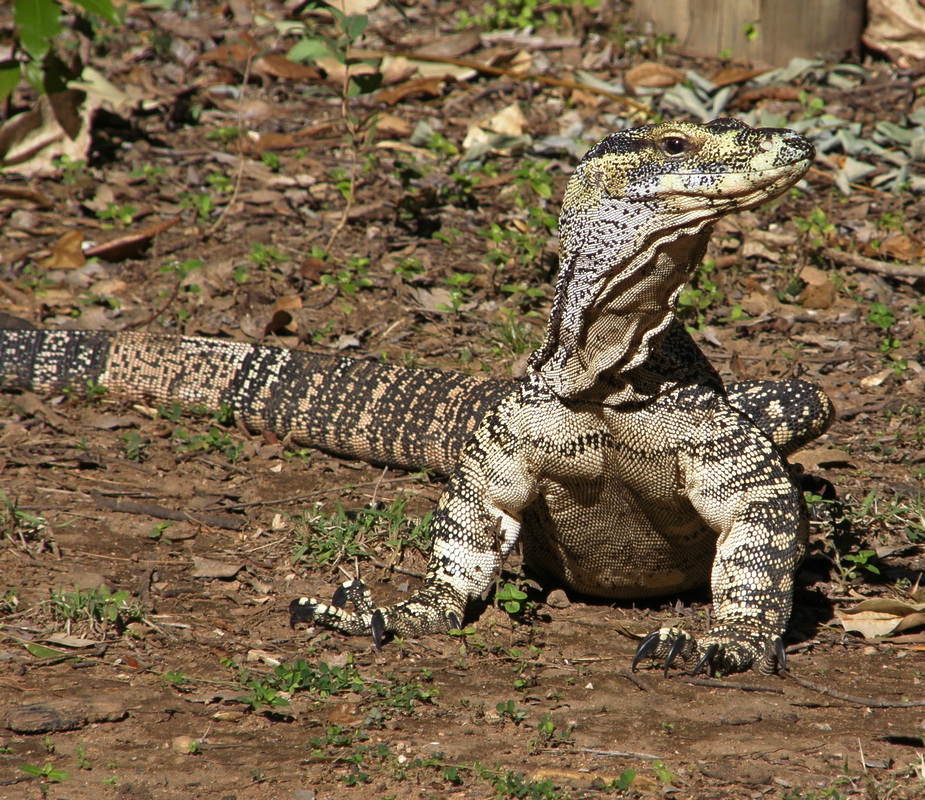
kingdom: Animalia
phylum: Chordata
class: Squamata
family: Varanidae
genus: Varanus
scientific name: Varanus varius
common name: Lace monitor
